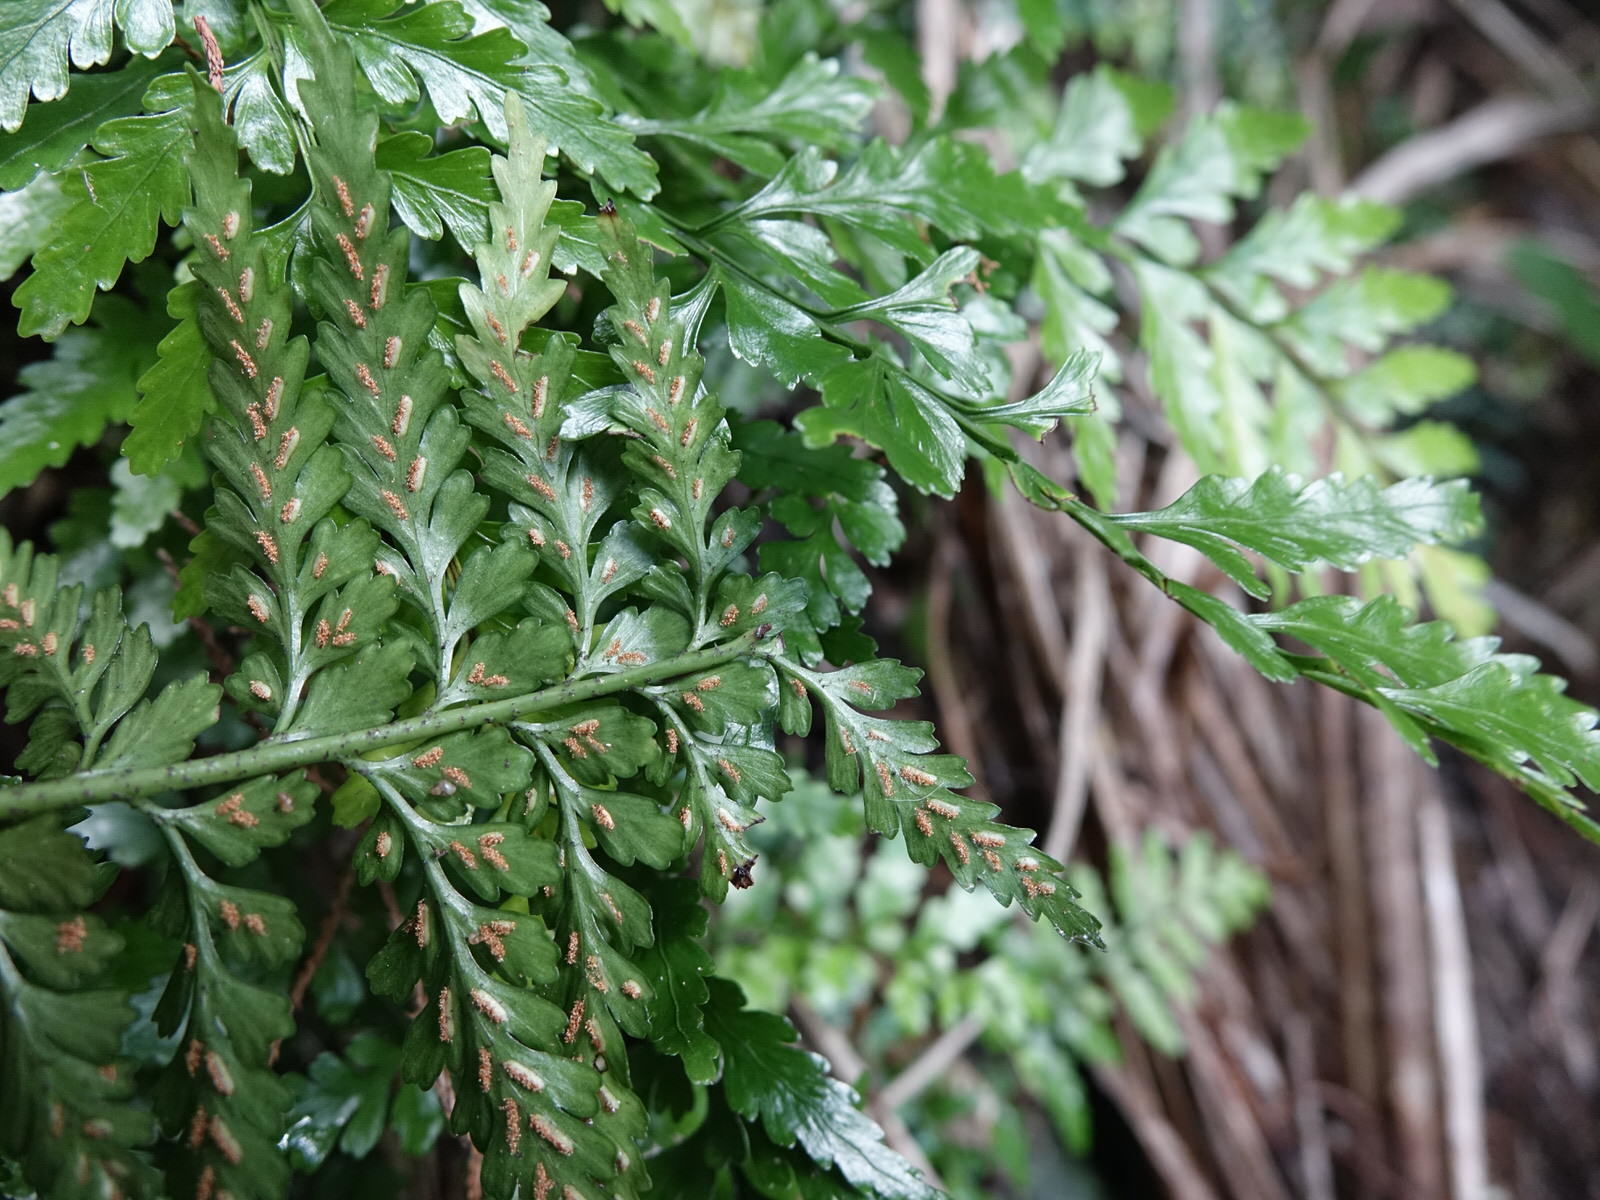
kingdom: Plantae
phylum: Tracheophyta
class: Polypodiopsida
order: Polypodiales
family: Aspleniaceae
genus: Asplenium
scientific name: Asplenium lamprophyllum
